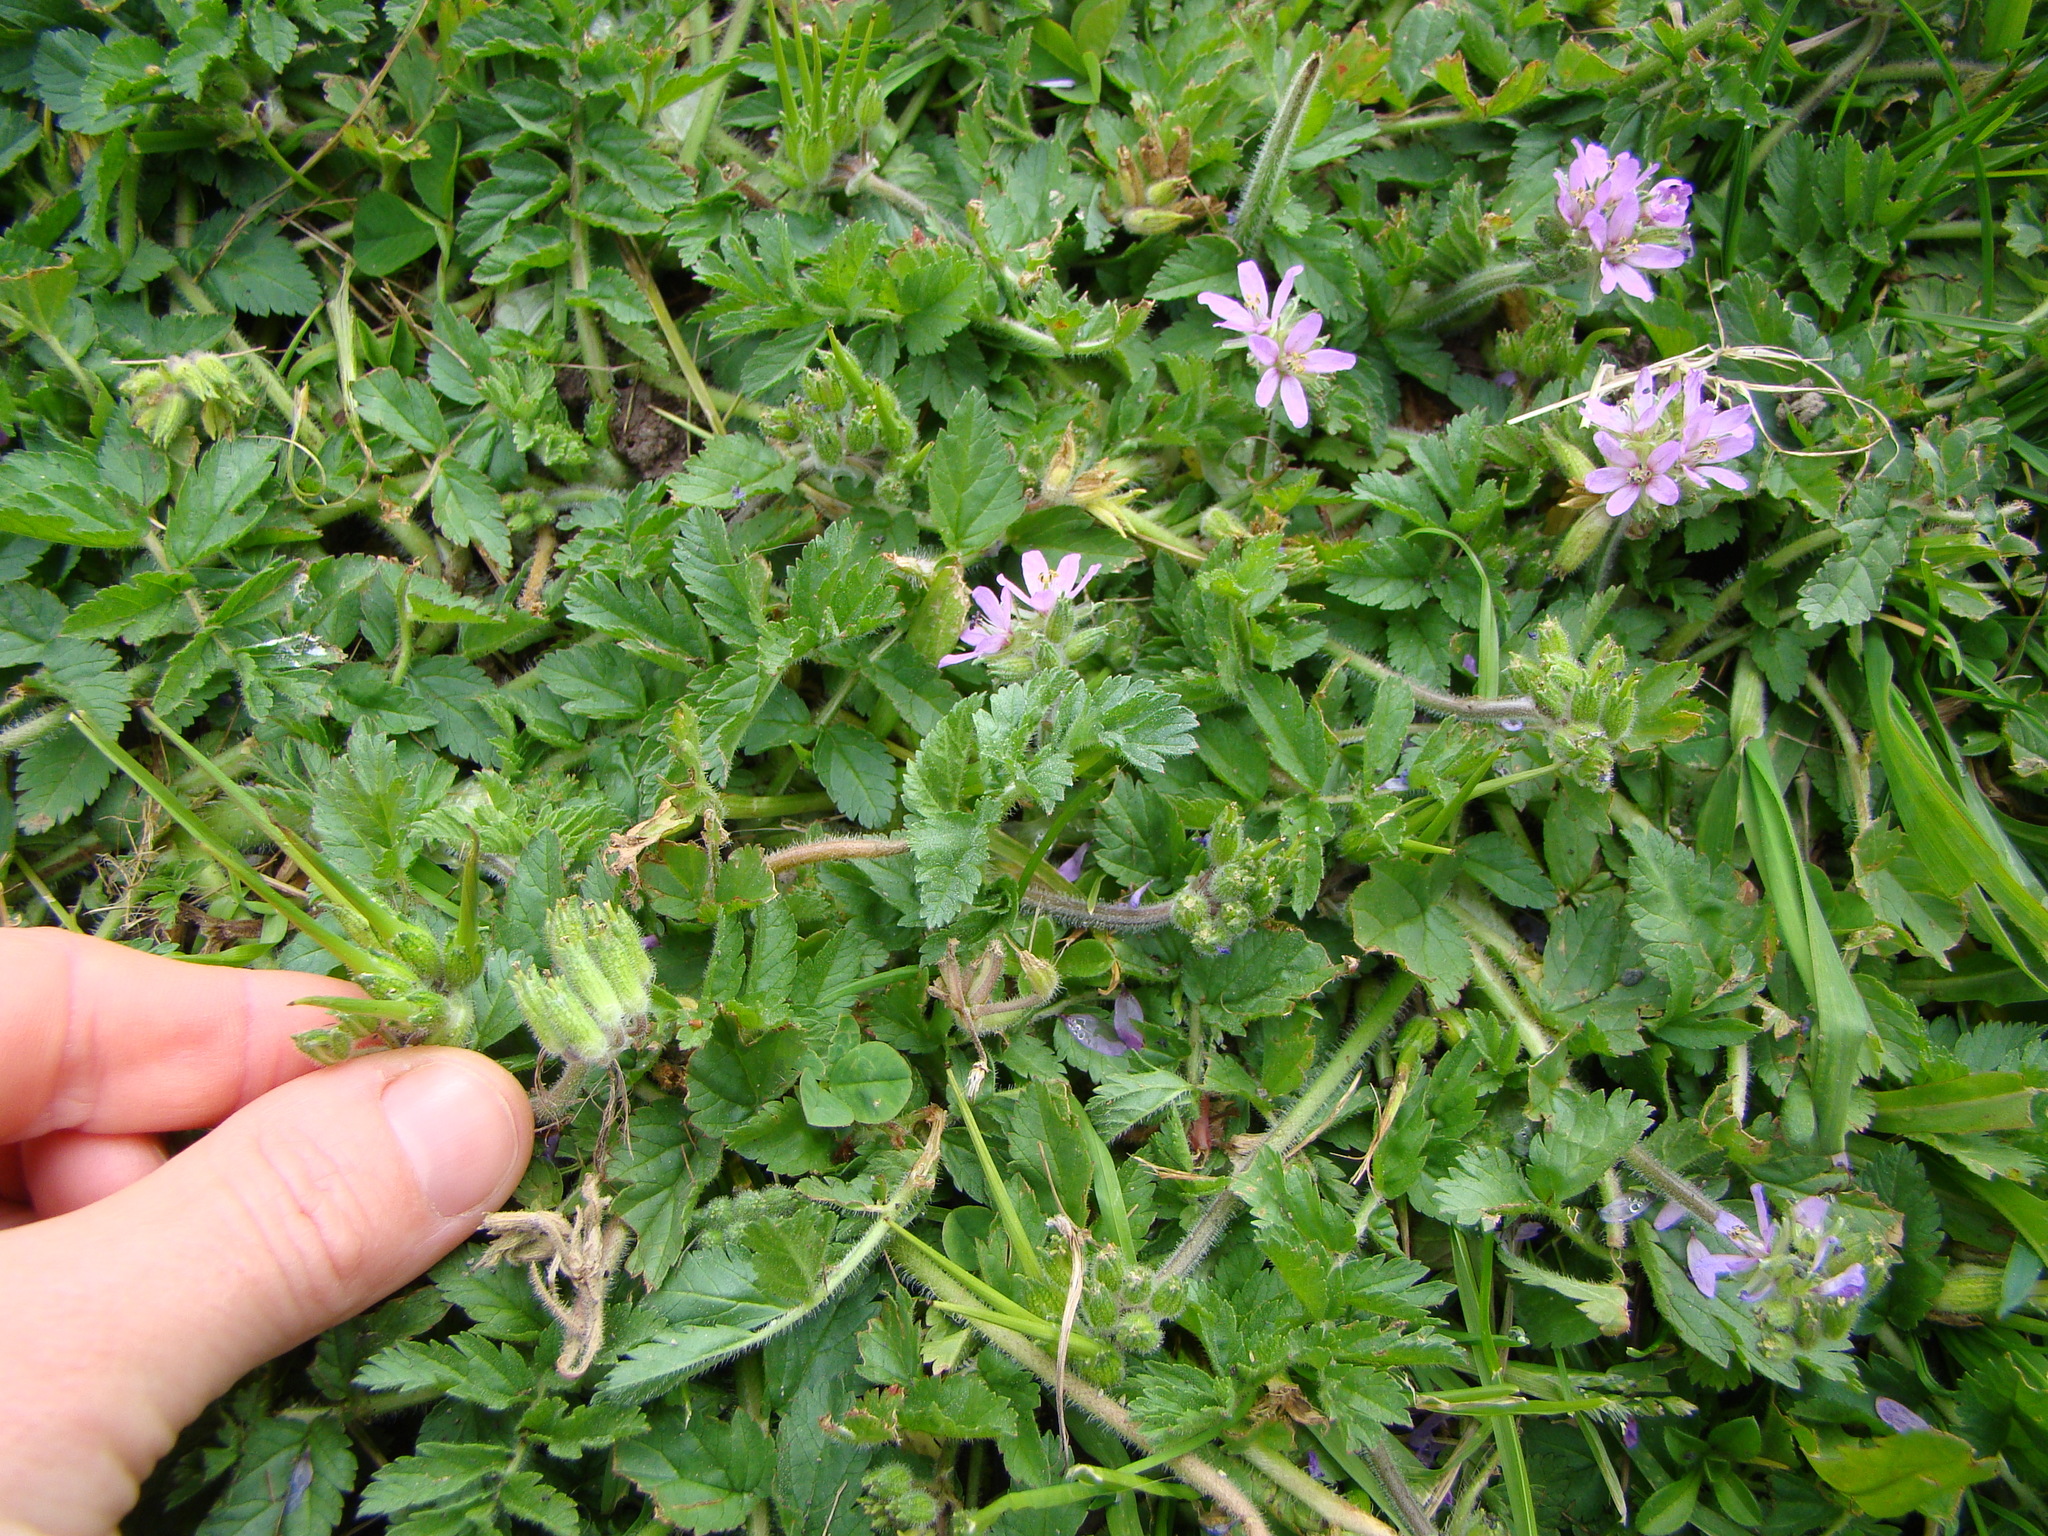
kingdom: Plantae
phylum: Tracheophyta
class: Magnoliopsida
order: Geraniales
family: Geraniaceae
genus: Erodium
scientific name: Erodium moschatum
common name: Musk stork's-bill
